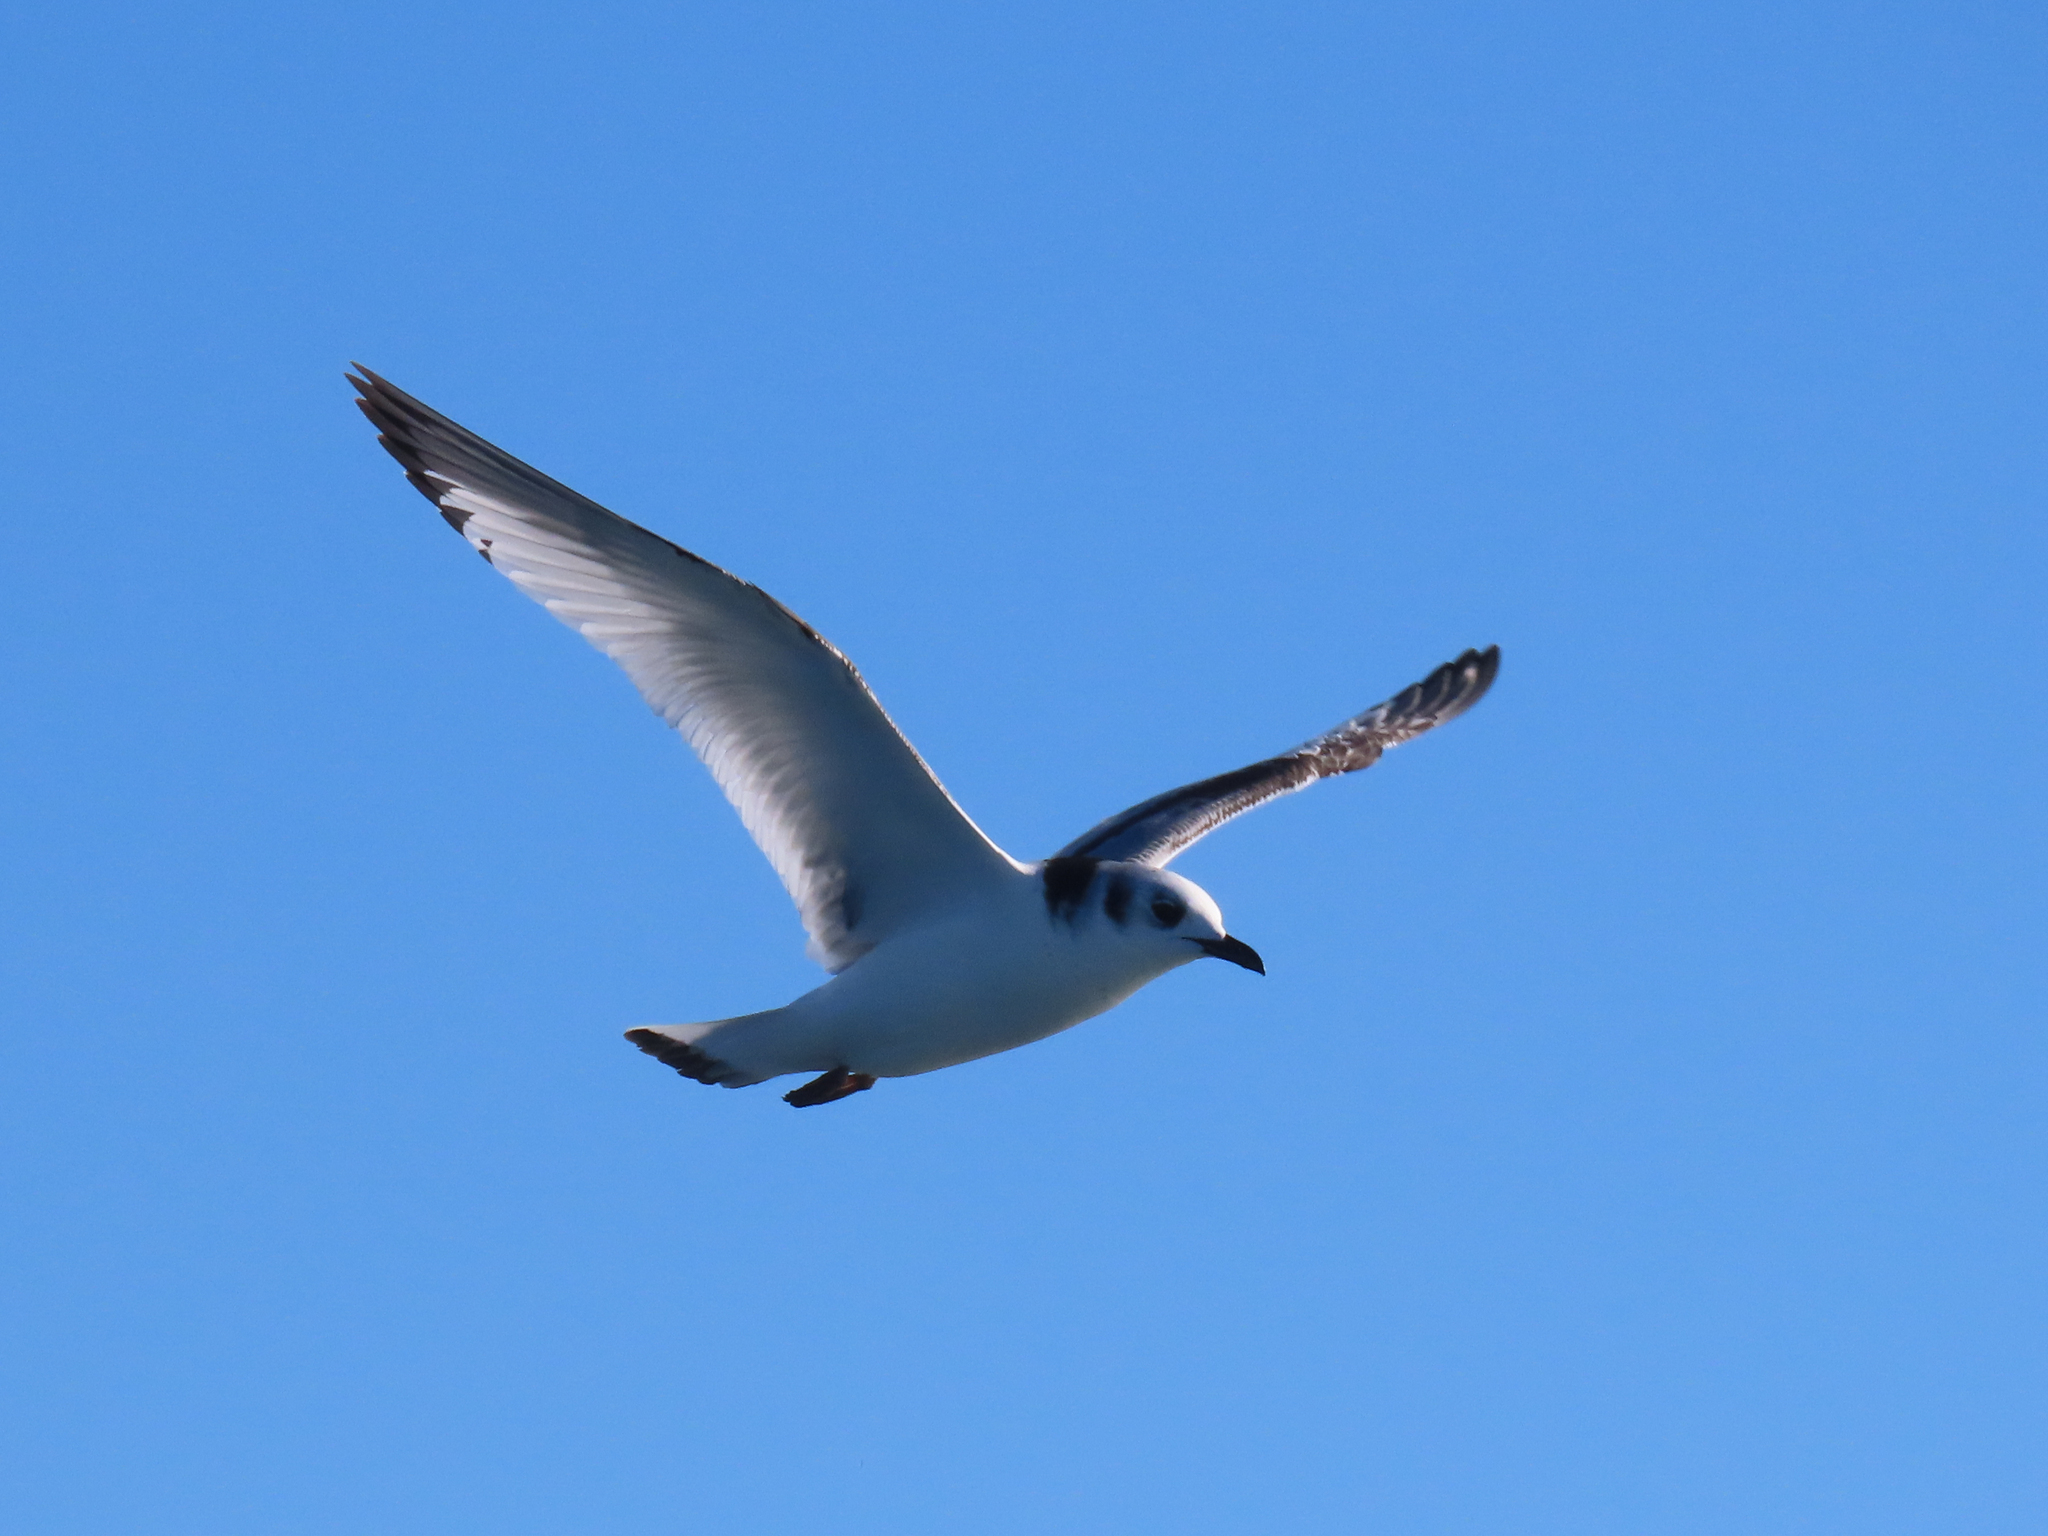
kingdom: Animalia
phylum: Chordata
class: Aves
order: Charadriiformes
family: Laridae
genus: Rissa
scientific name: Rissa tridactyla
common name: Black-legged kittiwake
